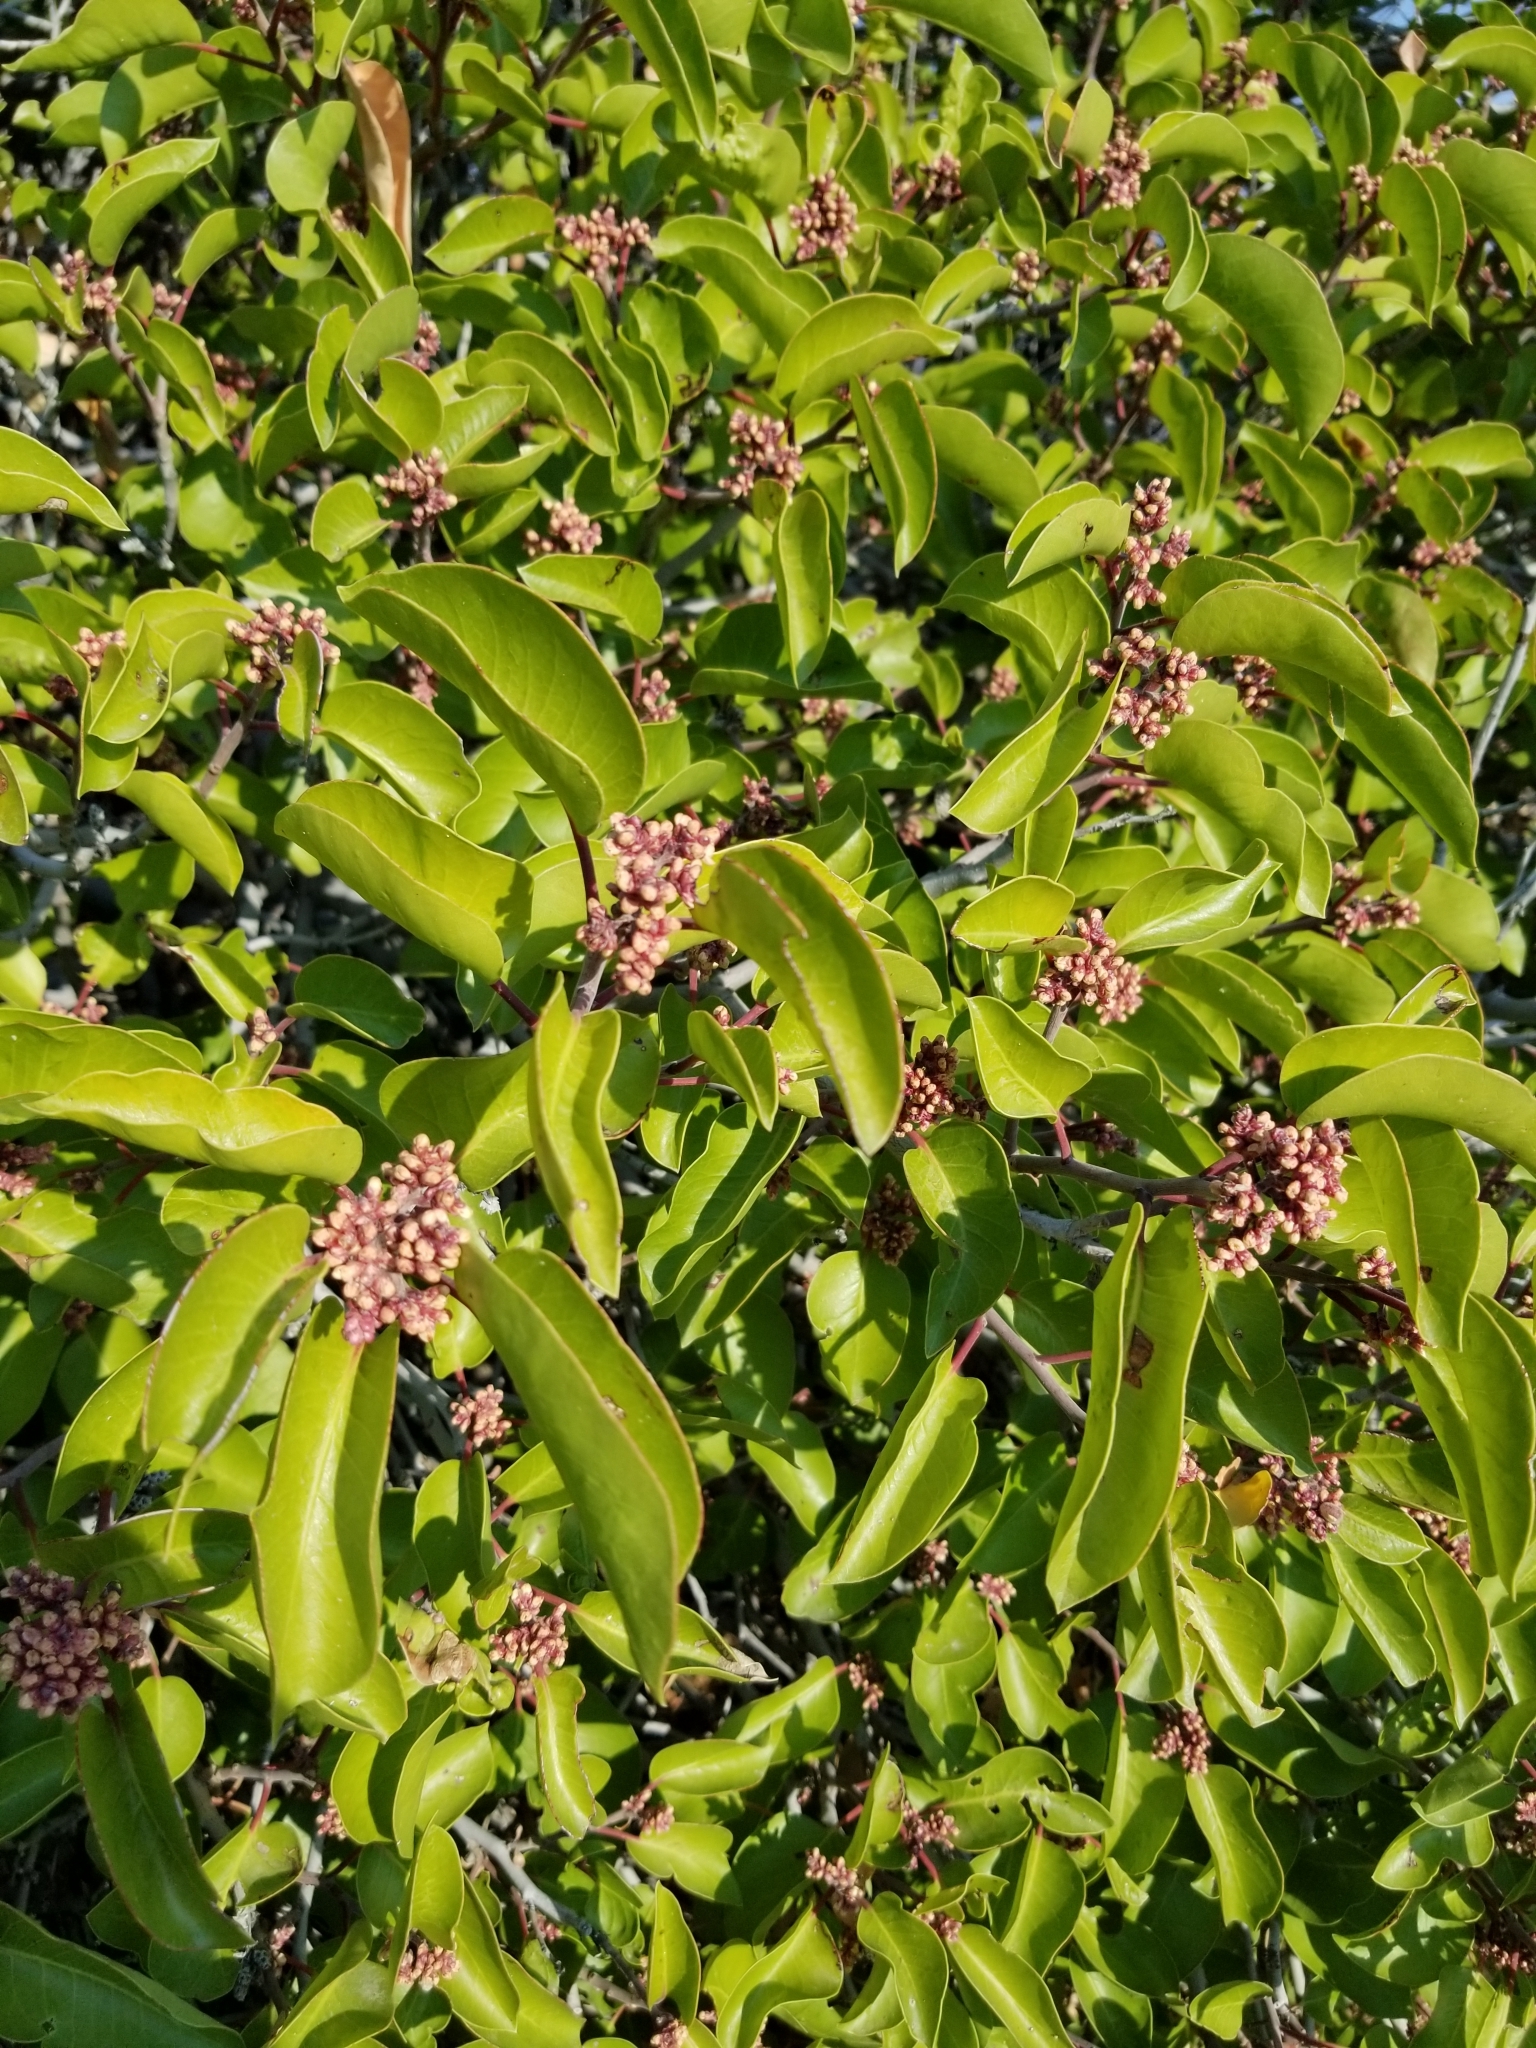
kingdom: Plantae
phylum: Tracheophyta
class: Magnoliopsida
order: Sapindales
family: Anacardiaceae
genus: Rhus
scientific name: Rhus ovata
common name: Sugar sumac
